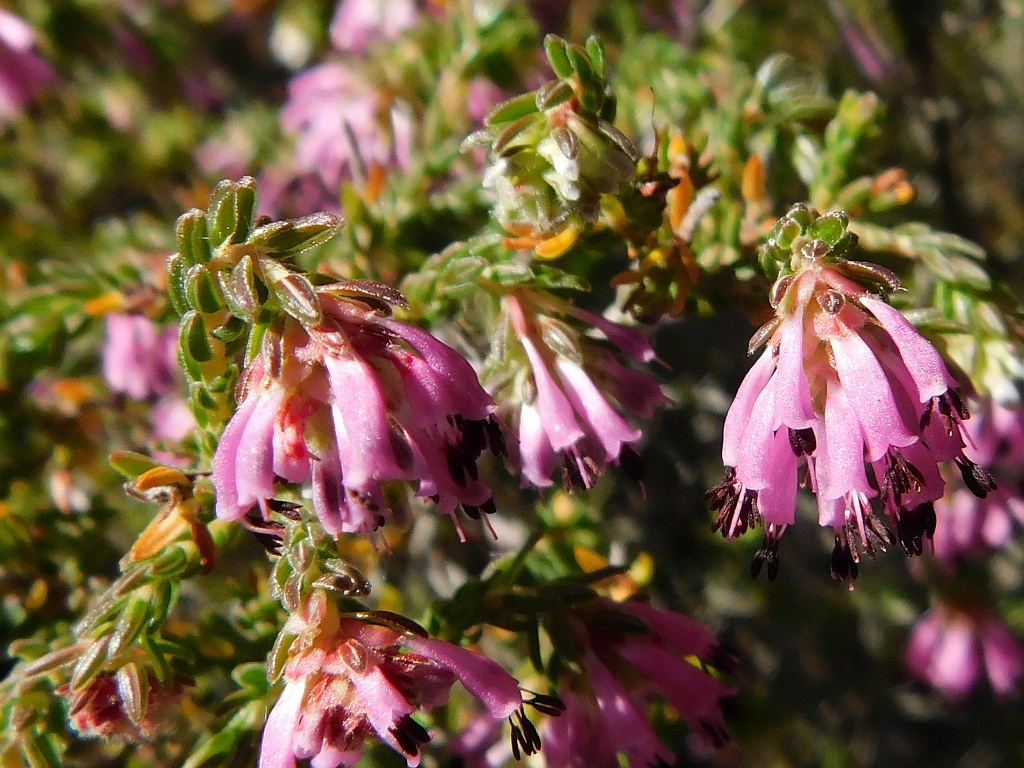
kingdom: Plantae
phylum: Tracheophyta
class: Magnoliopsida
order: Ericales
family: Ericaceae
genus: Erica
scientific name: Erica labialis
